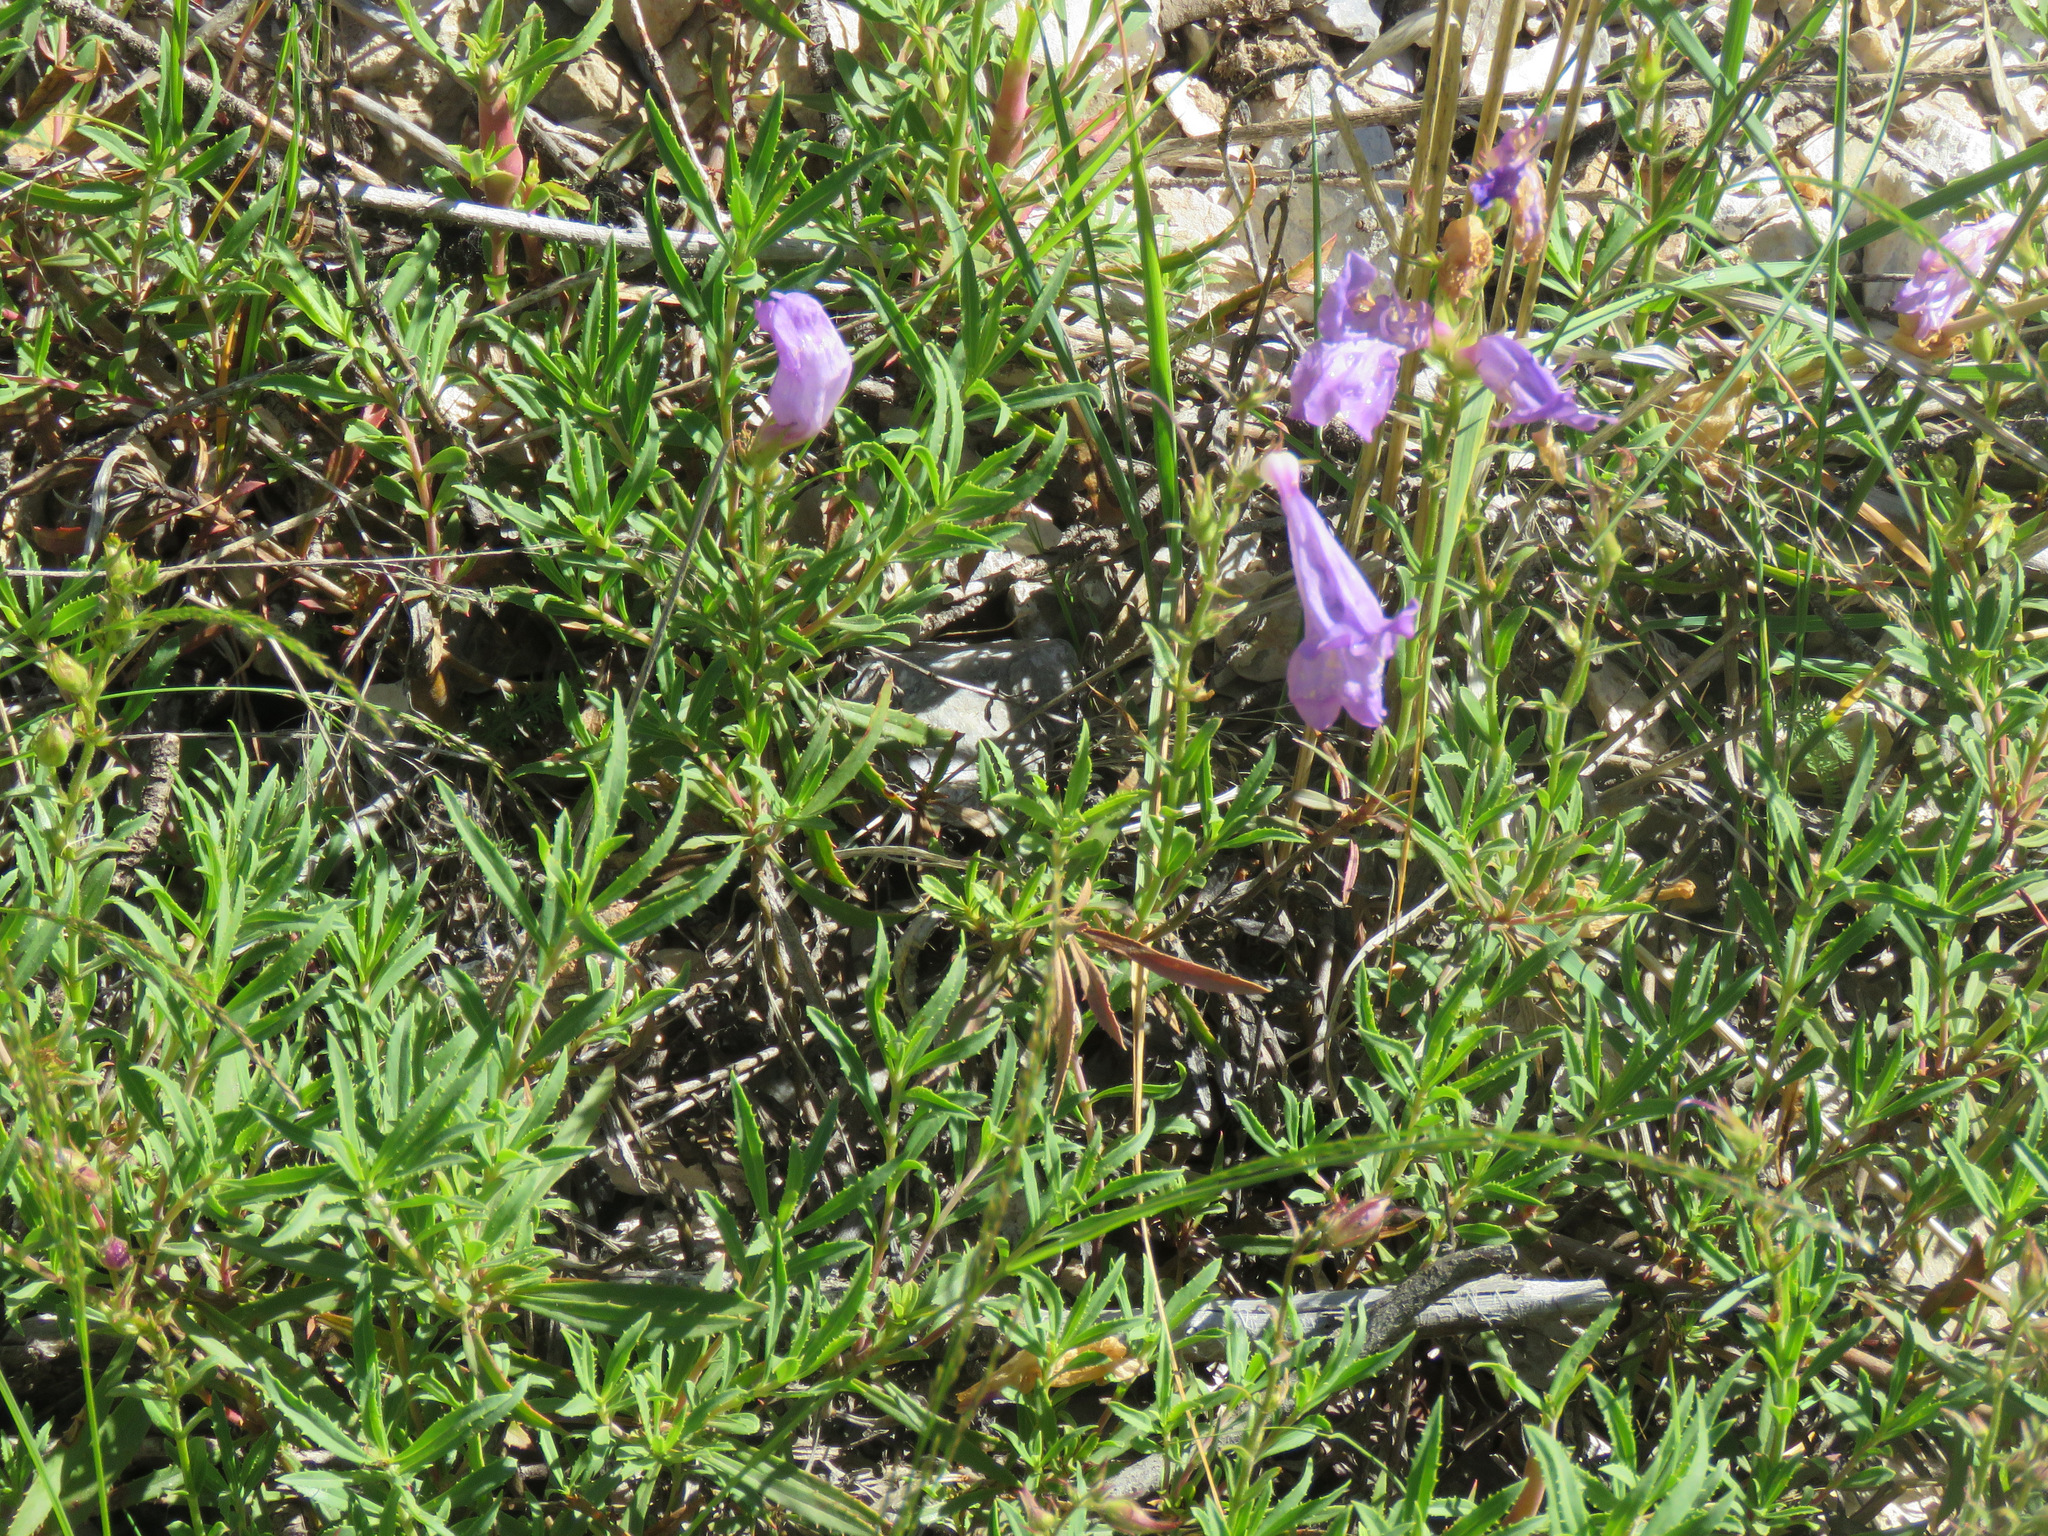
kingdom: Plantae
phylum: Tracheophyta
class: Magnoliopsida
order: Lamiales
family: Plantaginaceae
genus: Penstemon
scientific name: Penstemon fruticosus
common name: Bush penstemon
